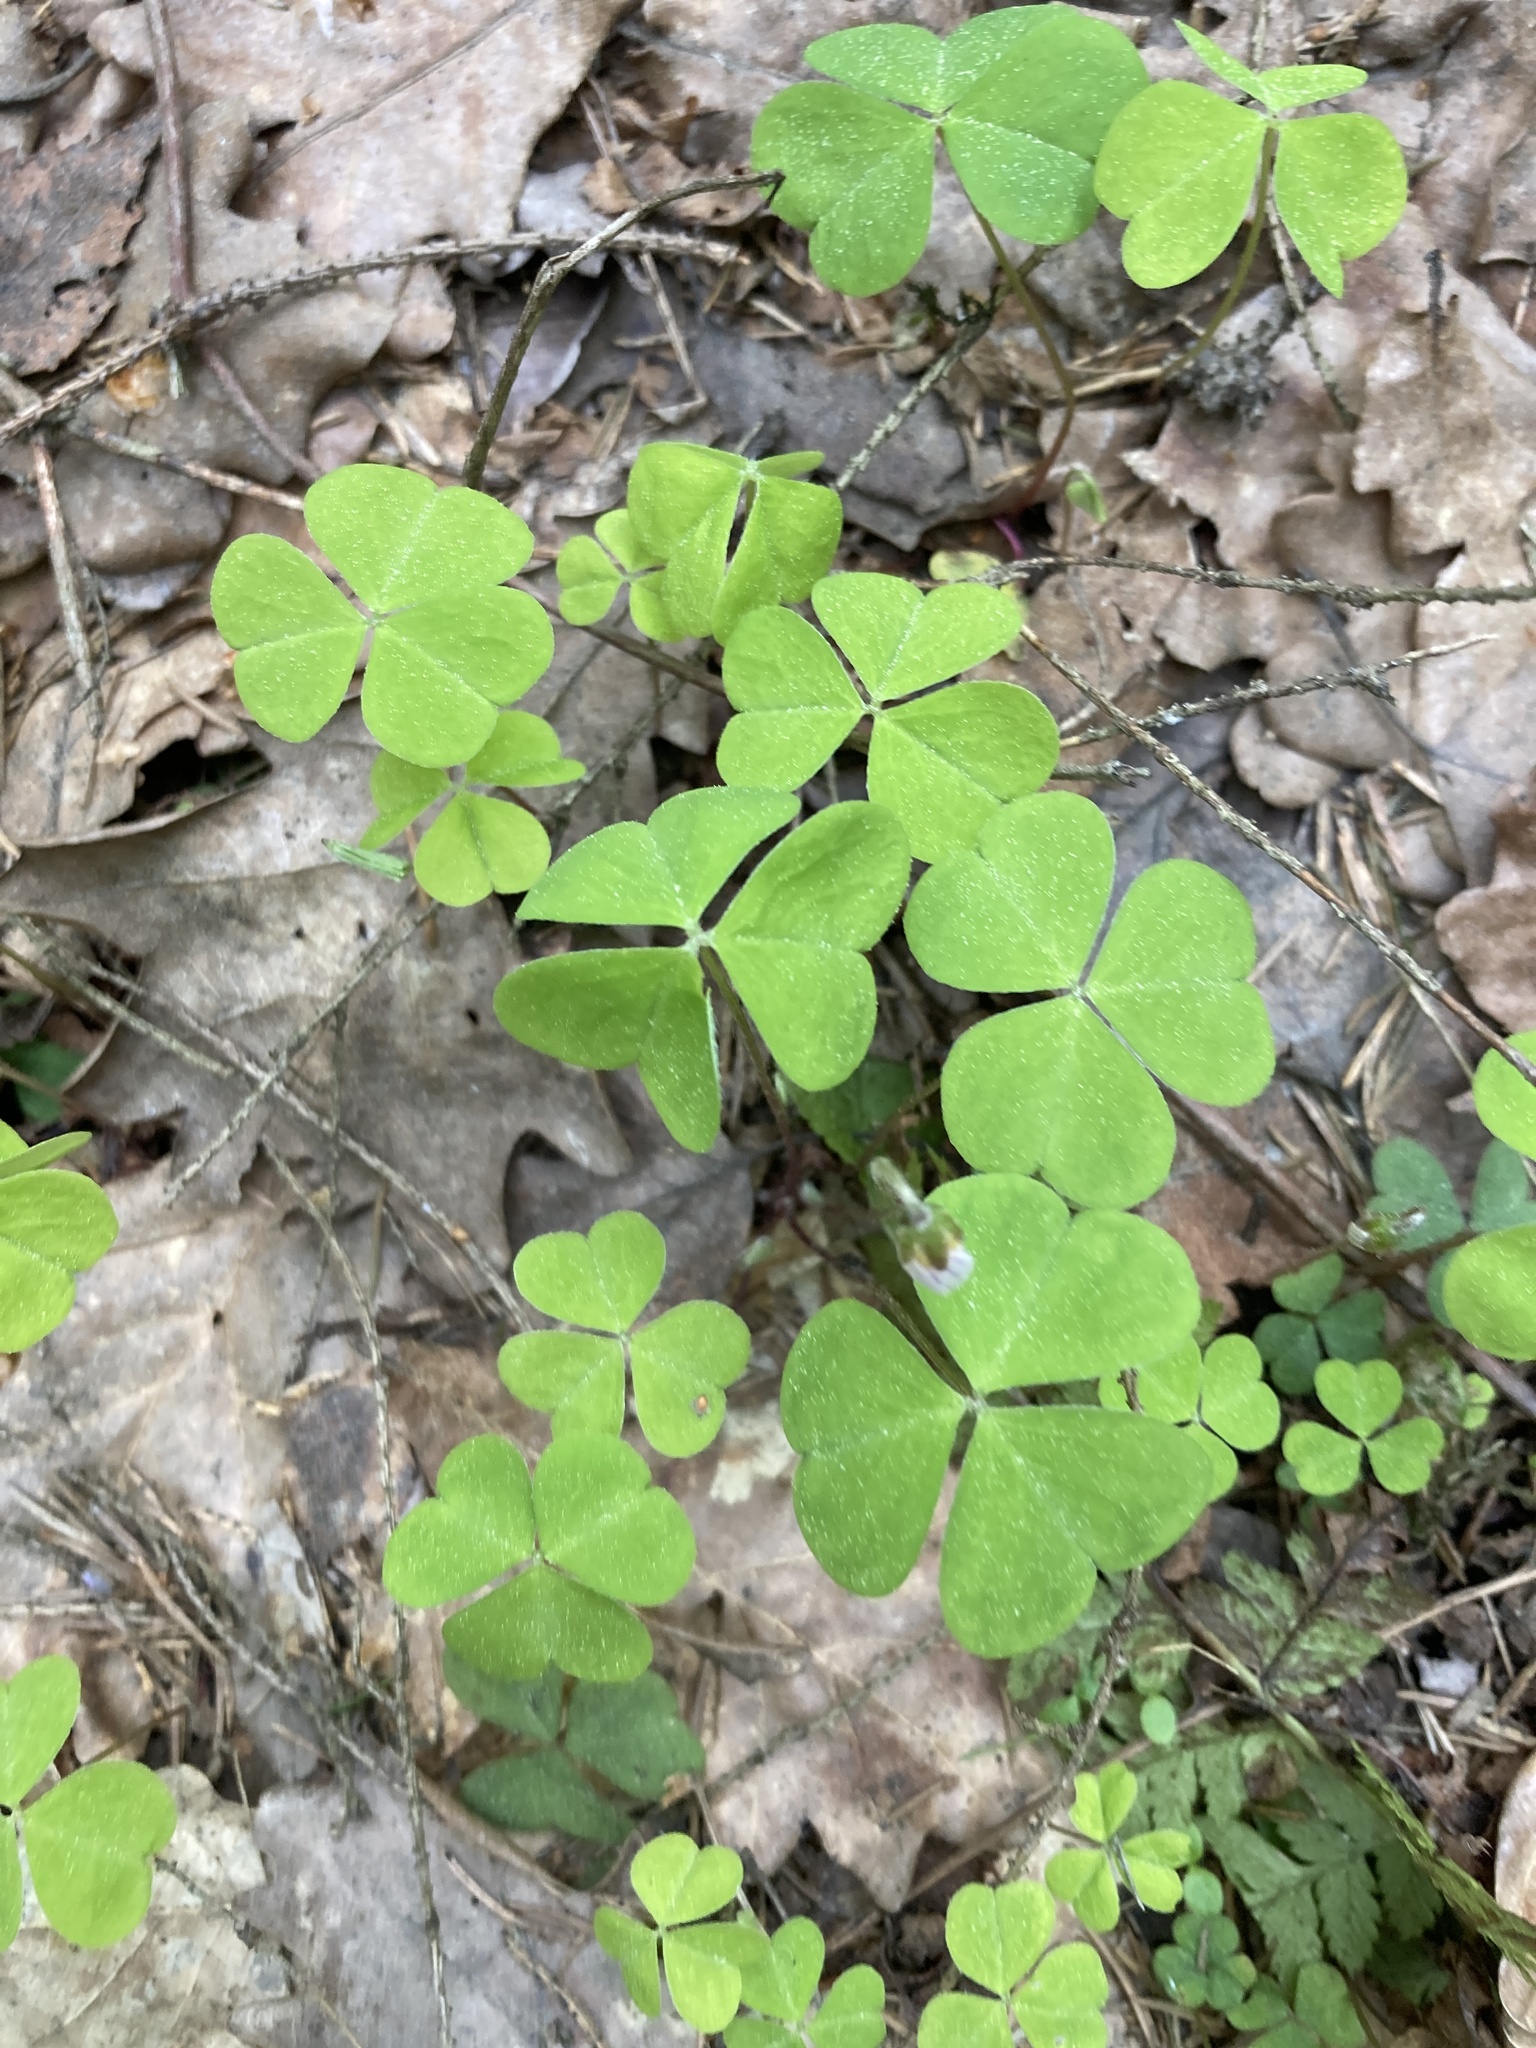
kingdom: Plantae
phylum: Tracheophyta
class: Magnoliopsida
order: Oxalidales
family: Oxalidaceae
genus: Oxalis
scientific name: Oxalis acetosella
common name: Wood-sorrel
